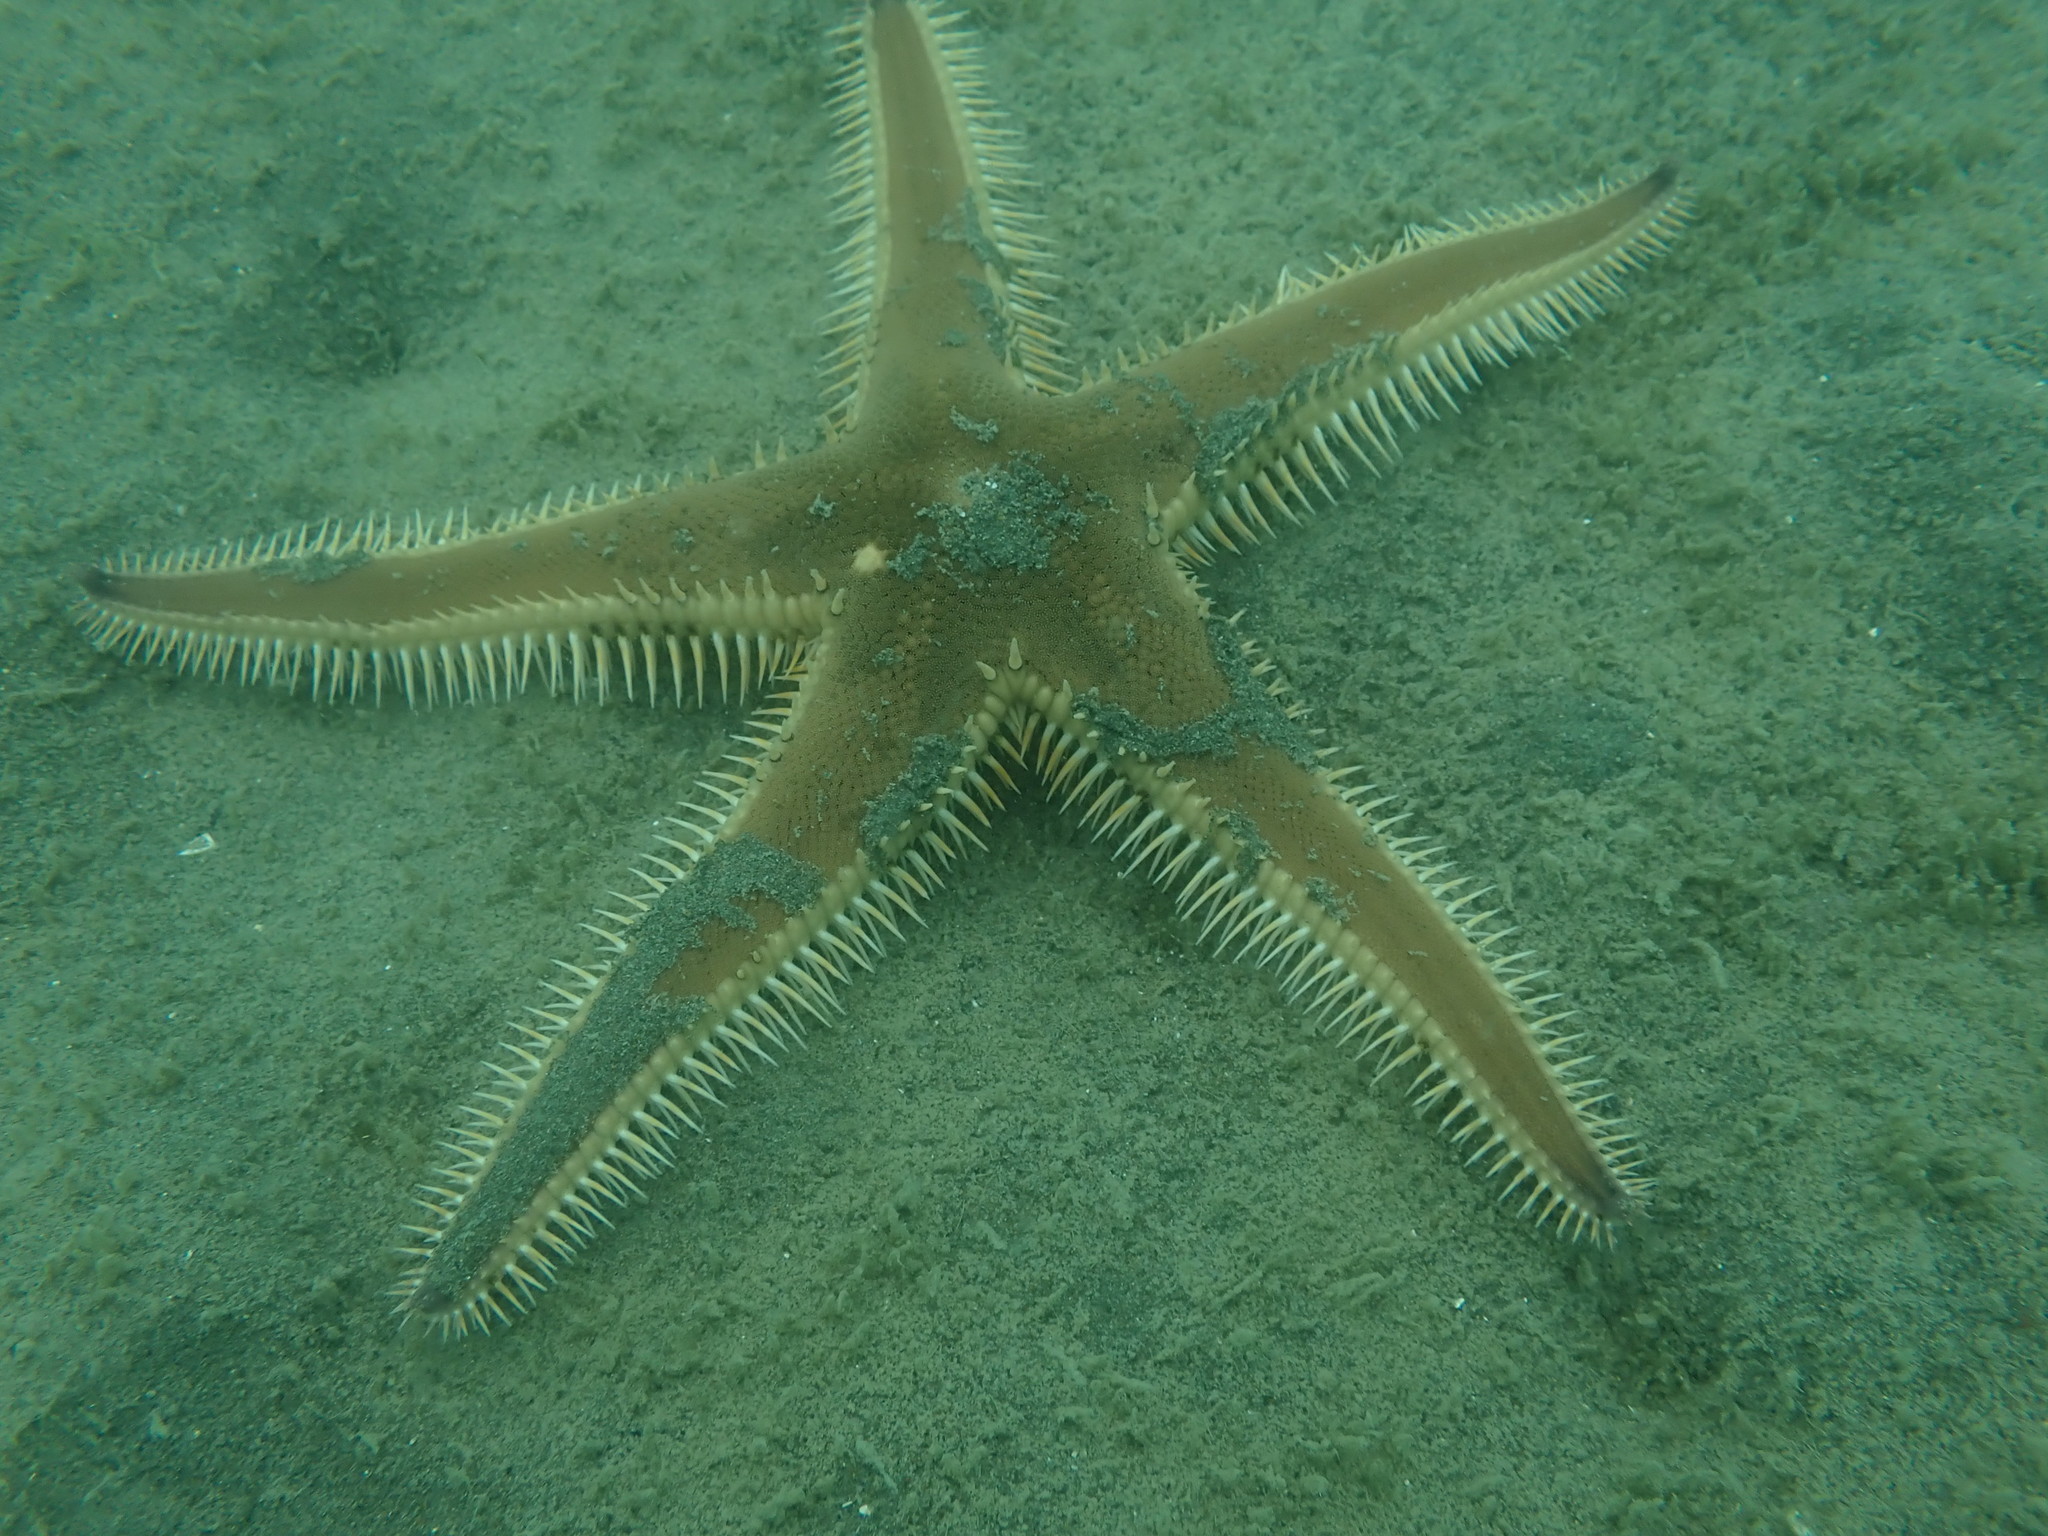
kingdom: Animalia
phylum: Echinodermata
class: Asteroidea
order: Paxillosida
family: Astropectinidae
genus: Astropecten
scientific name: Astropecten polyacanthus
